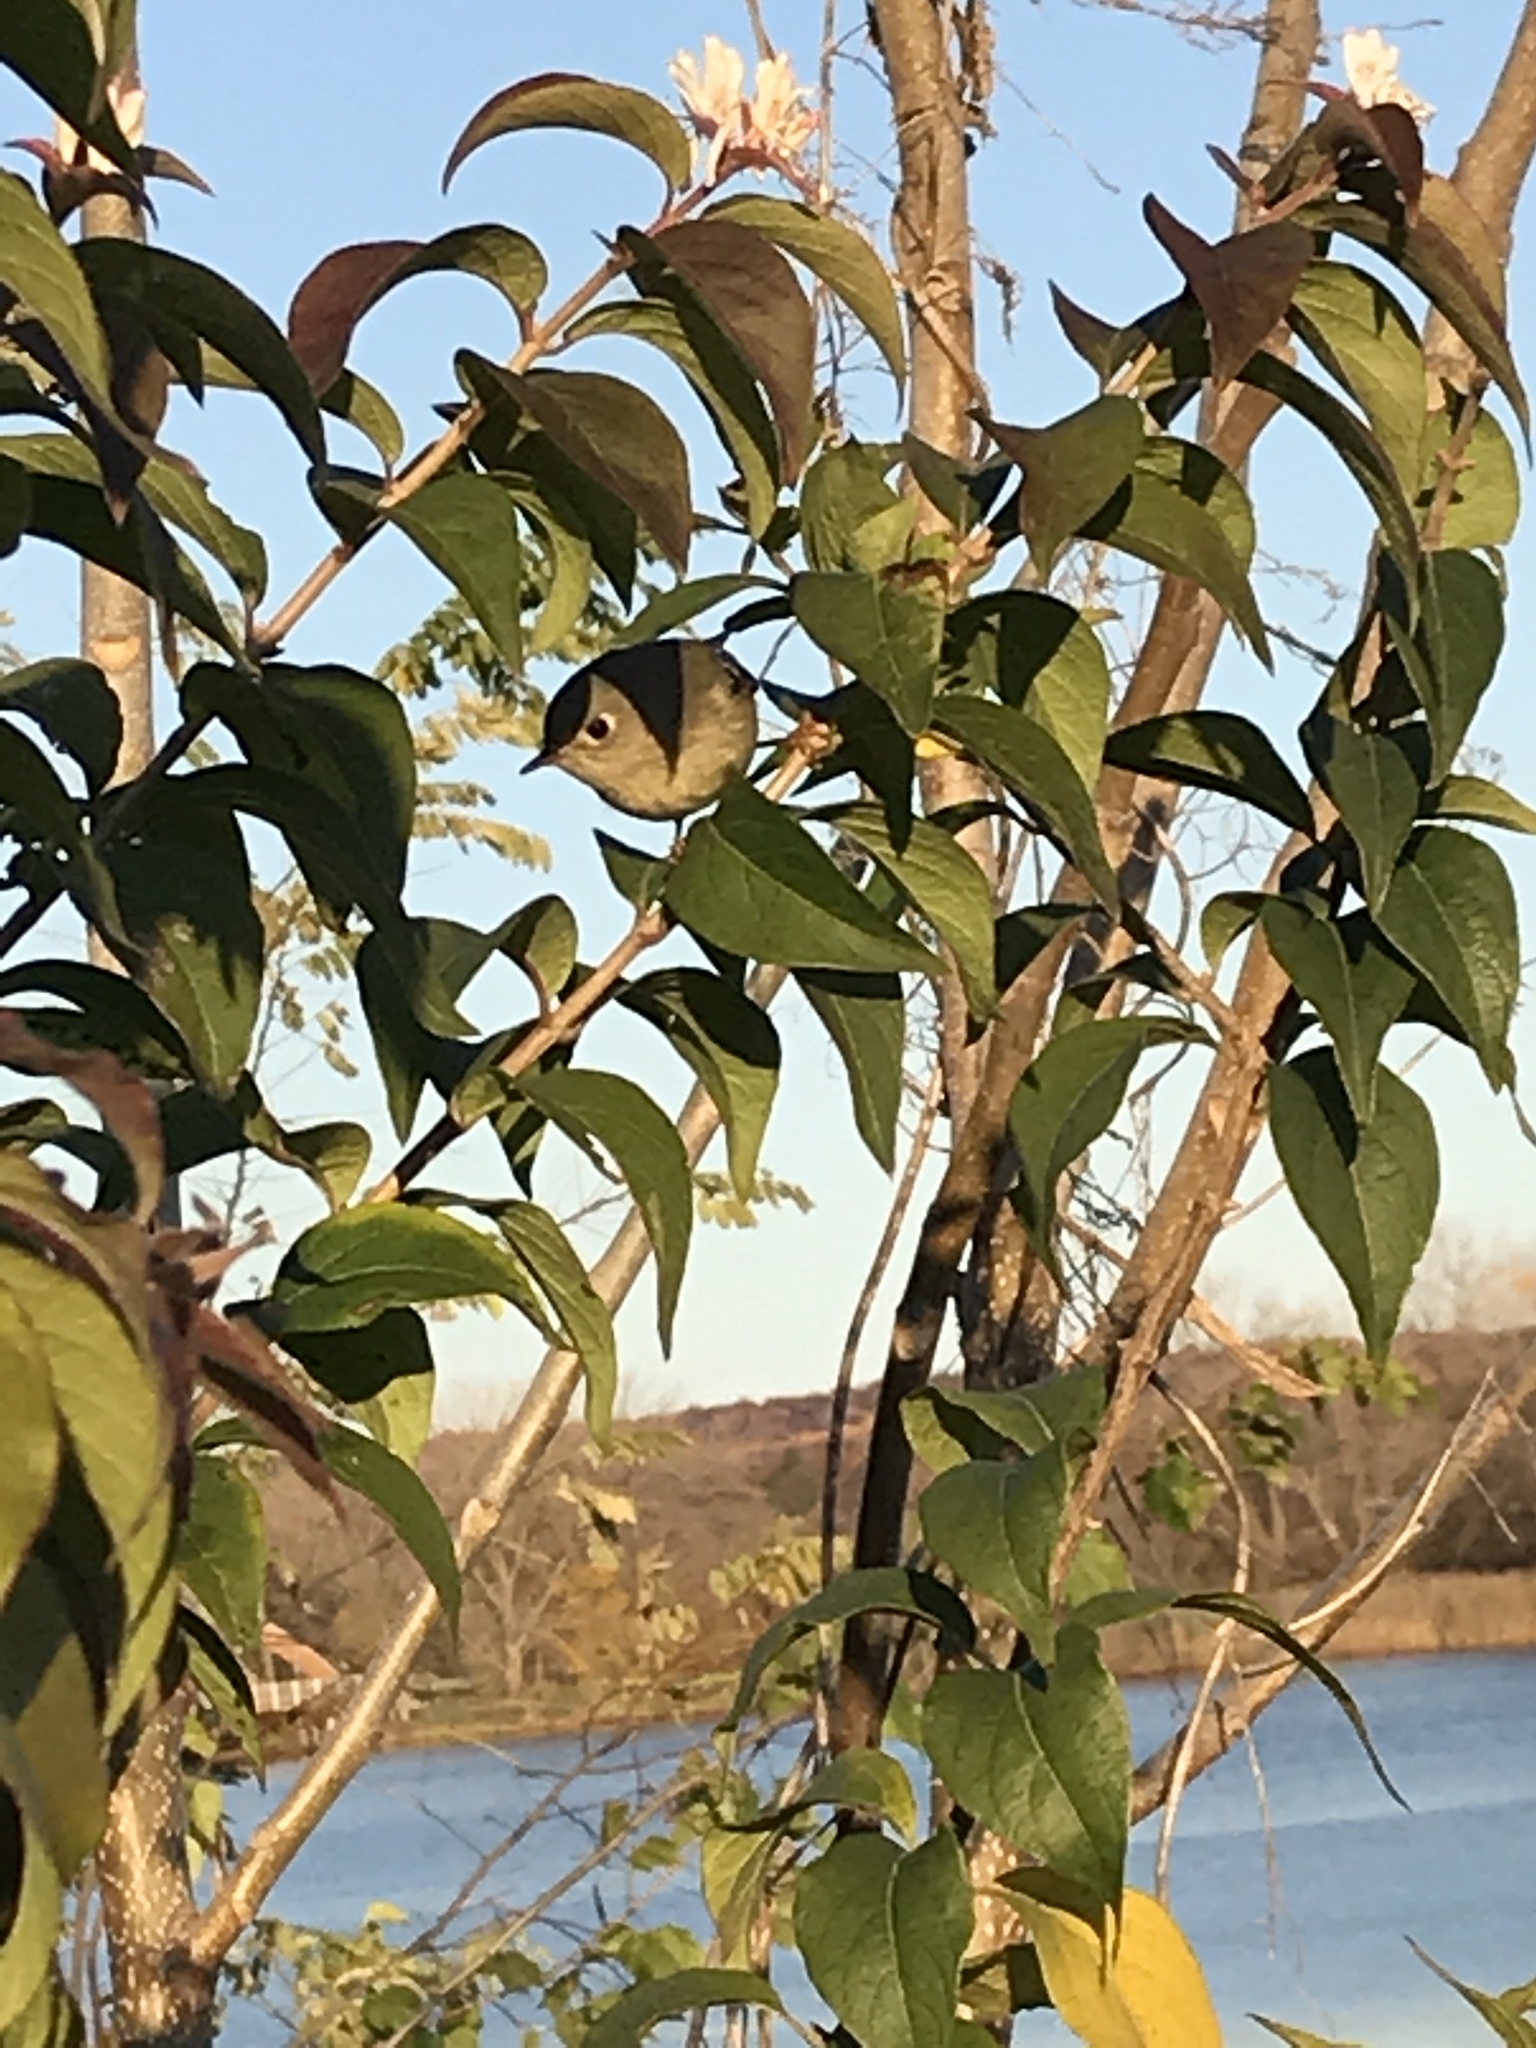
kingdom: Animalia
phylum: Chordata
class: Aves
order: Passeriformes
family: Regulidae
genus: Regulus
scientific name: Regulus calendula
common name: Ruby-crowned kinglet
